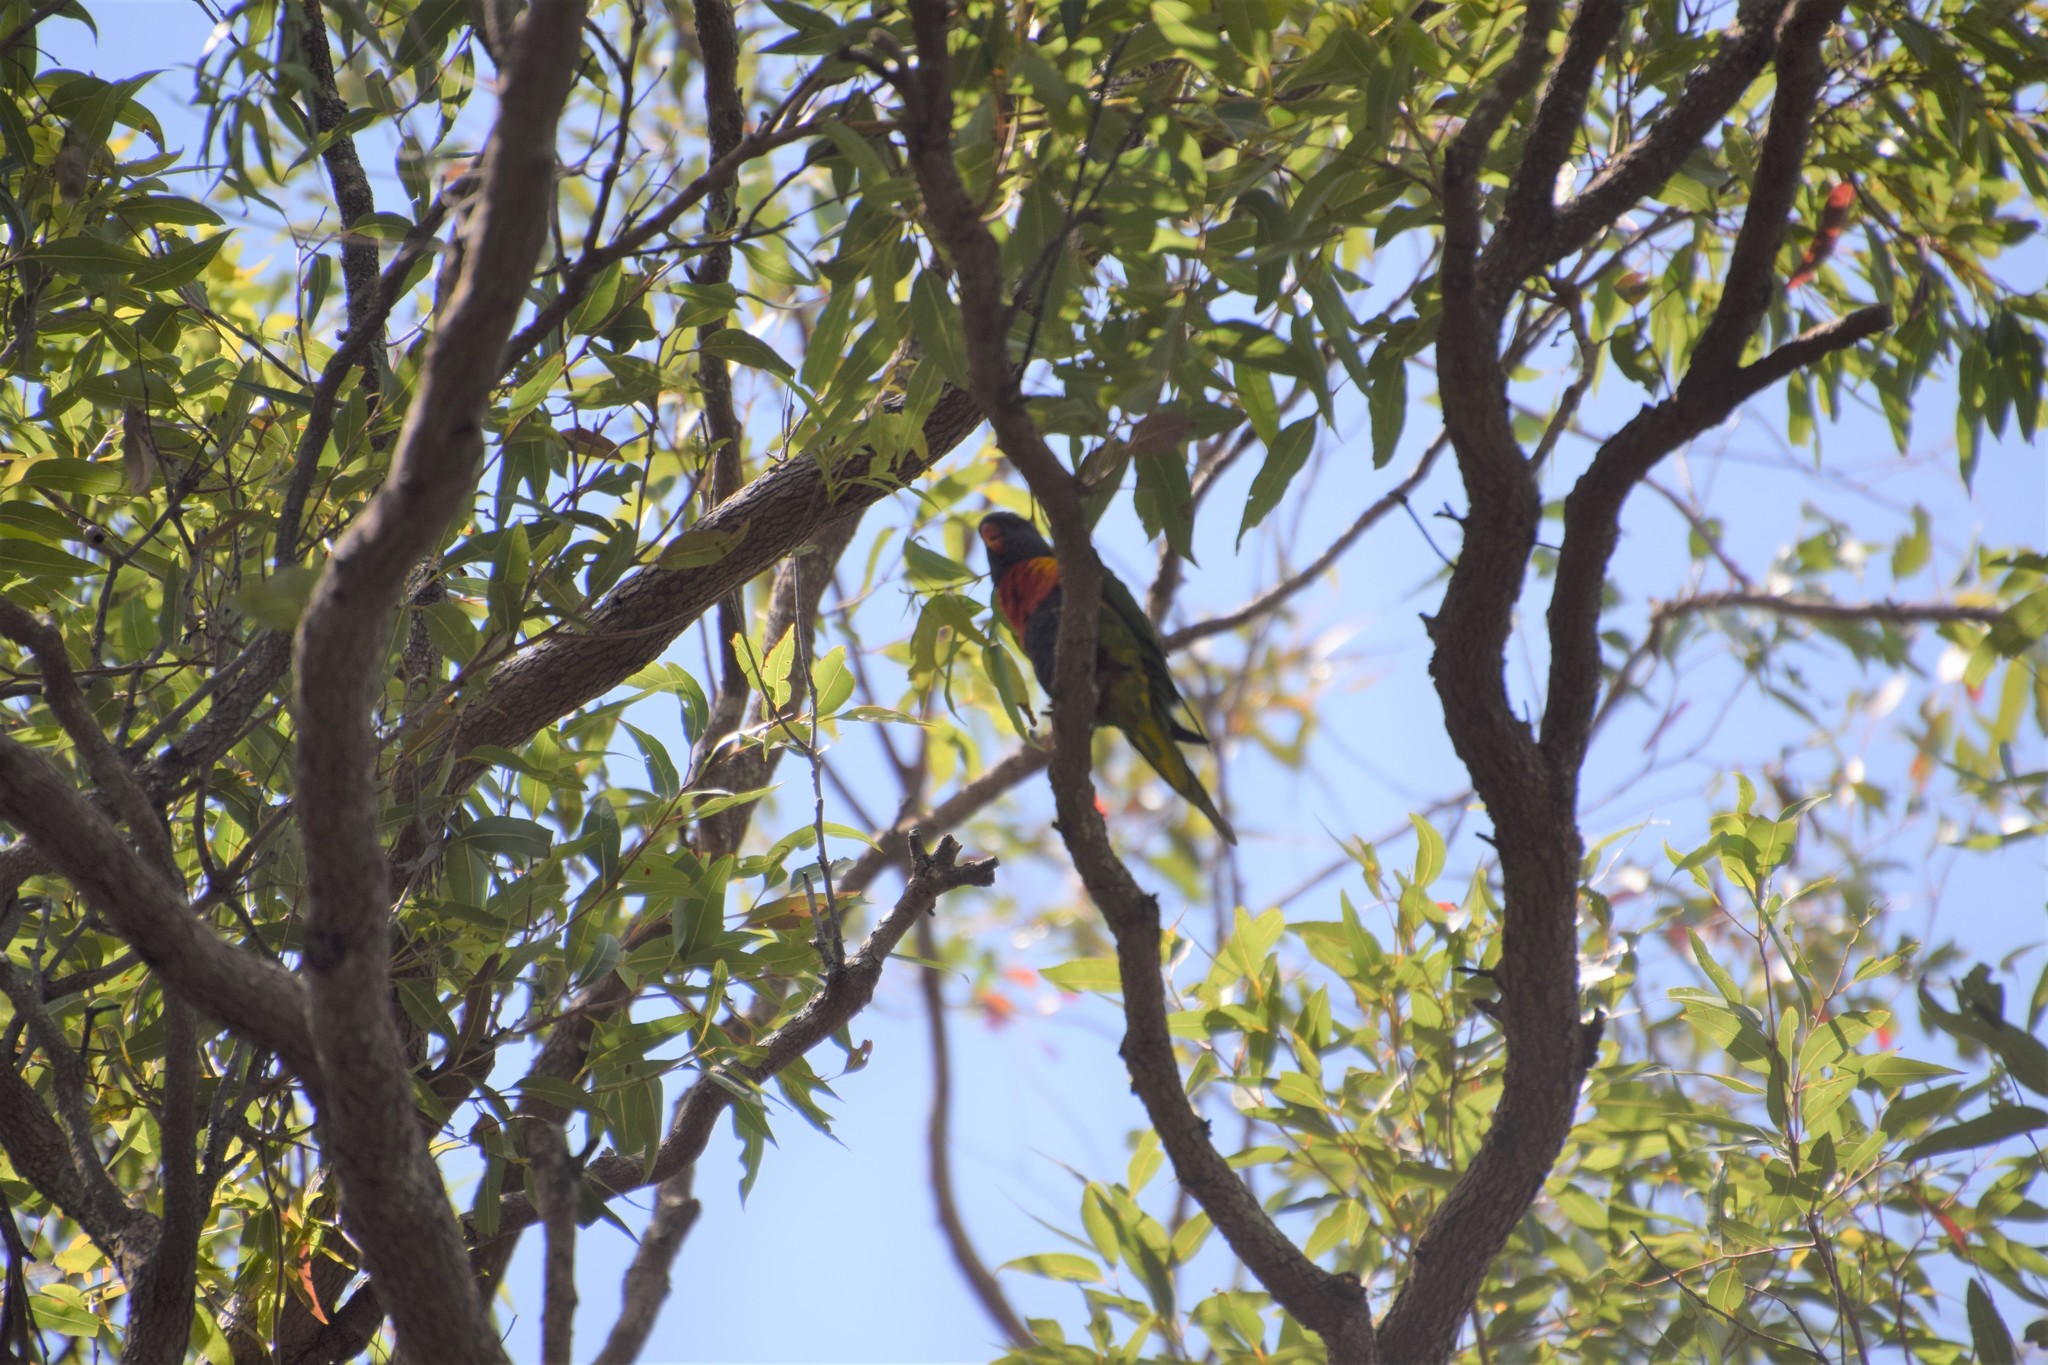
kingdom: Animalia
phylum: Chordata
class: Aves
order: Psittaciformes
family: Psittacidae
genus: Trichoglossus
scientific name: Trichoglossus haematodus
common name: Coconut lorikeet
